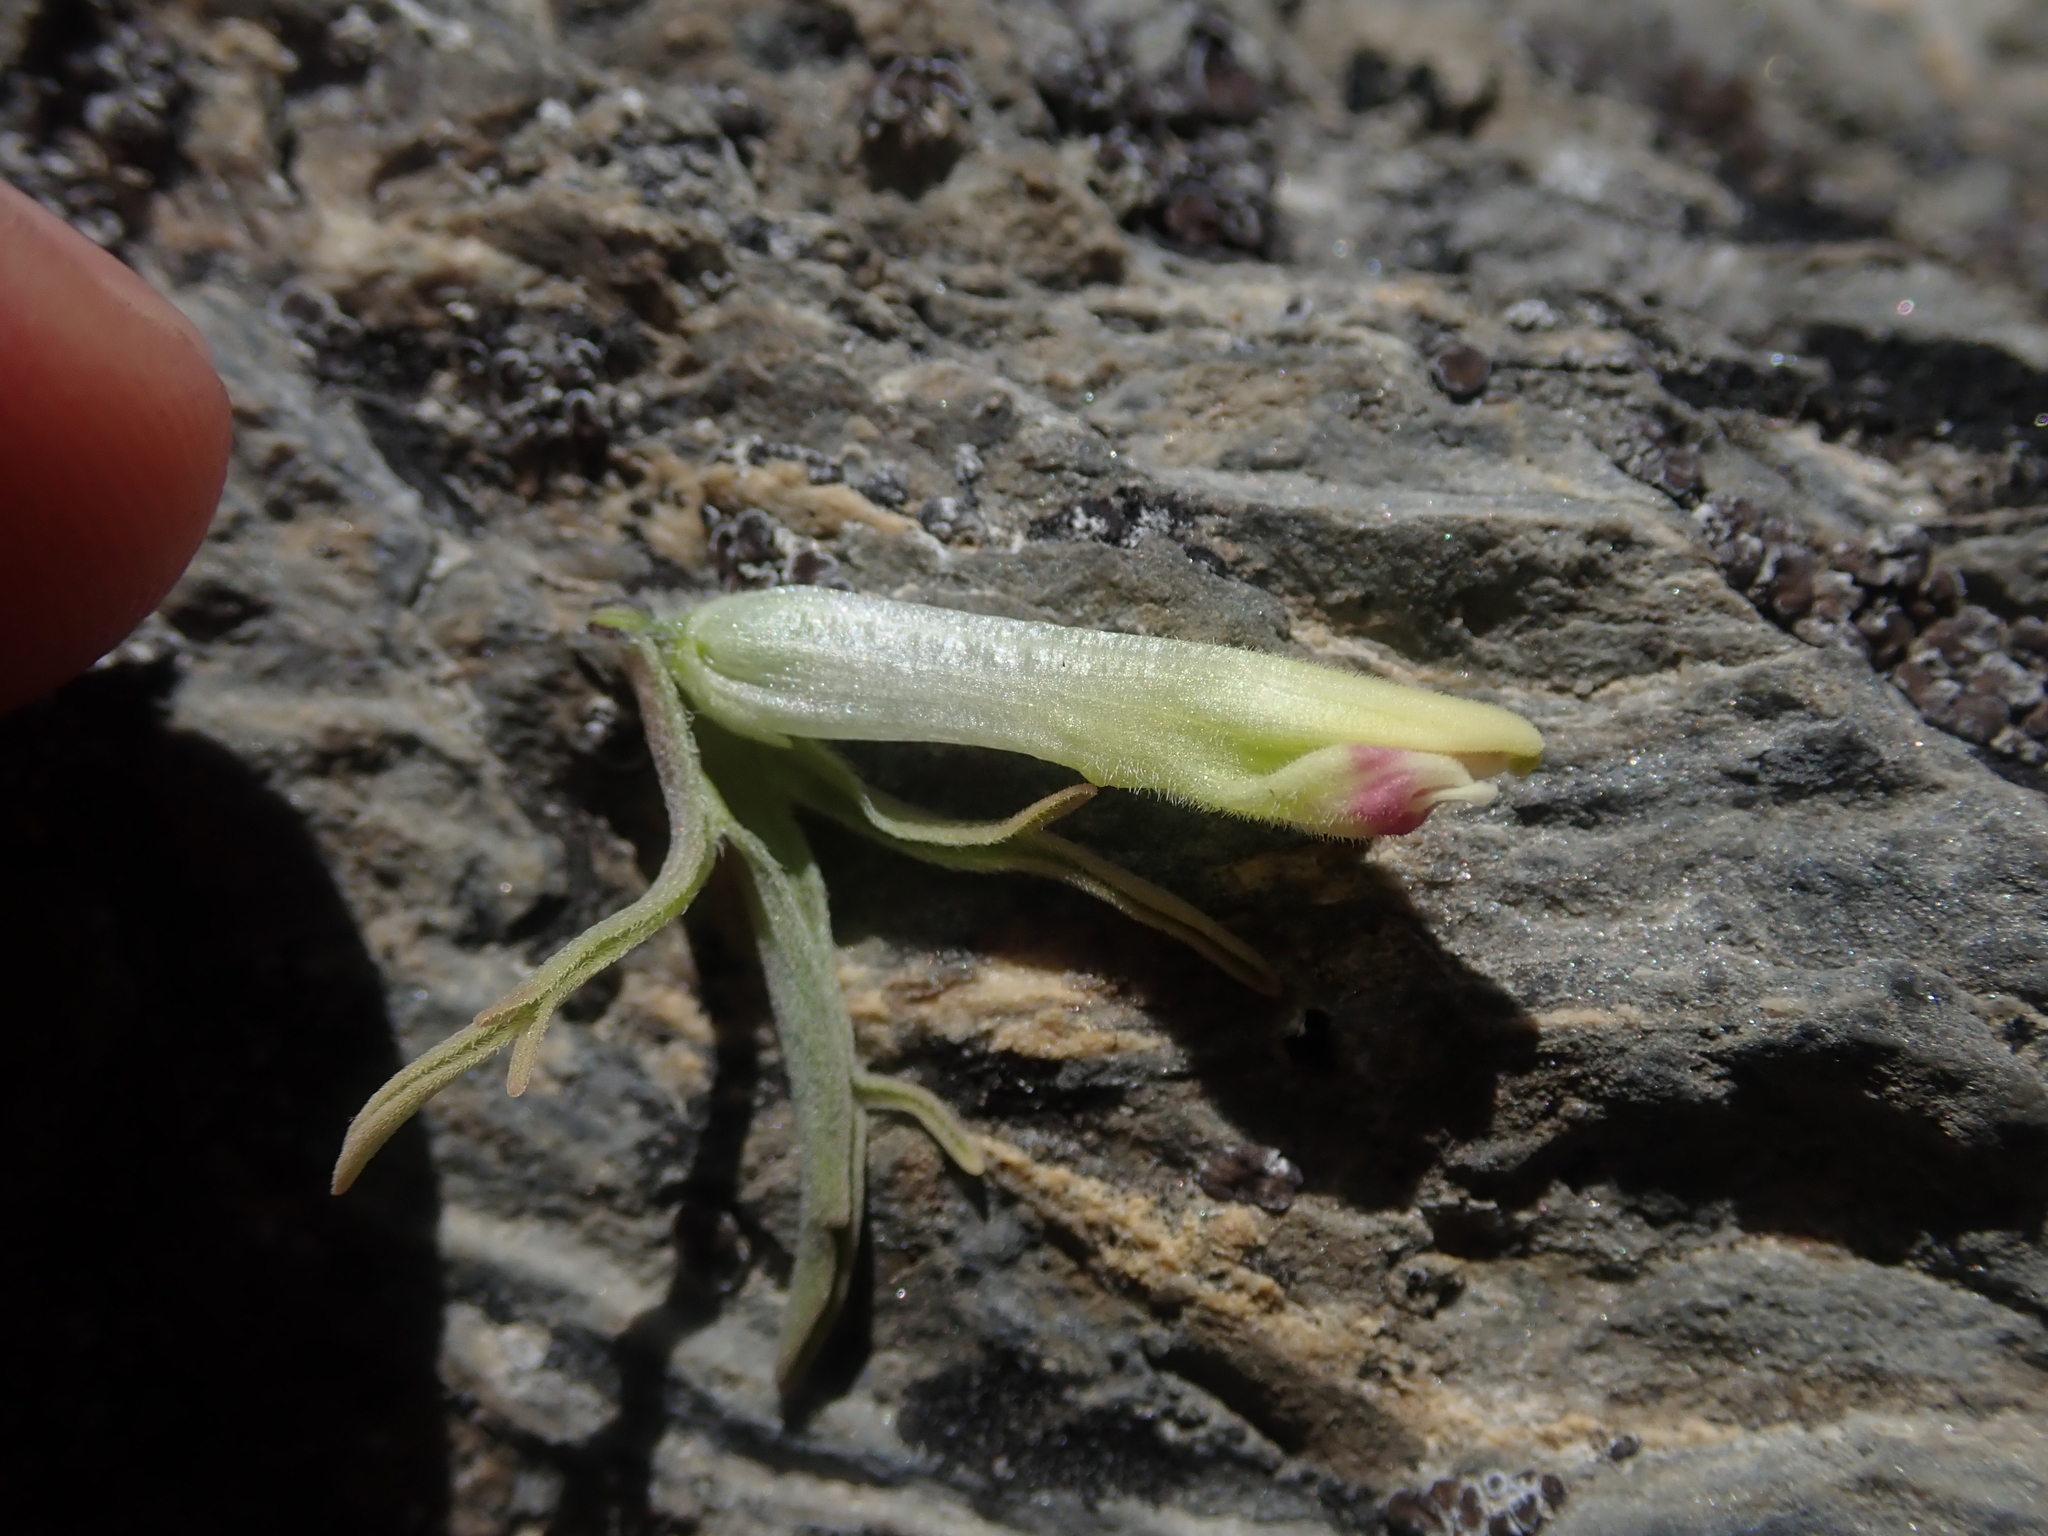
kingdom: Plantae
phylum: Tracheophyta
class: Magnoliopsida
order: Lamiales
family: Orobanchaceae
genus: Castilleja
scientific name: Castilleja pallescens
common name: Pale paintbrush
